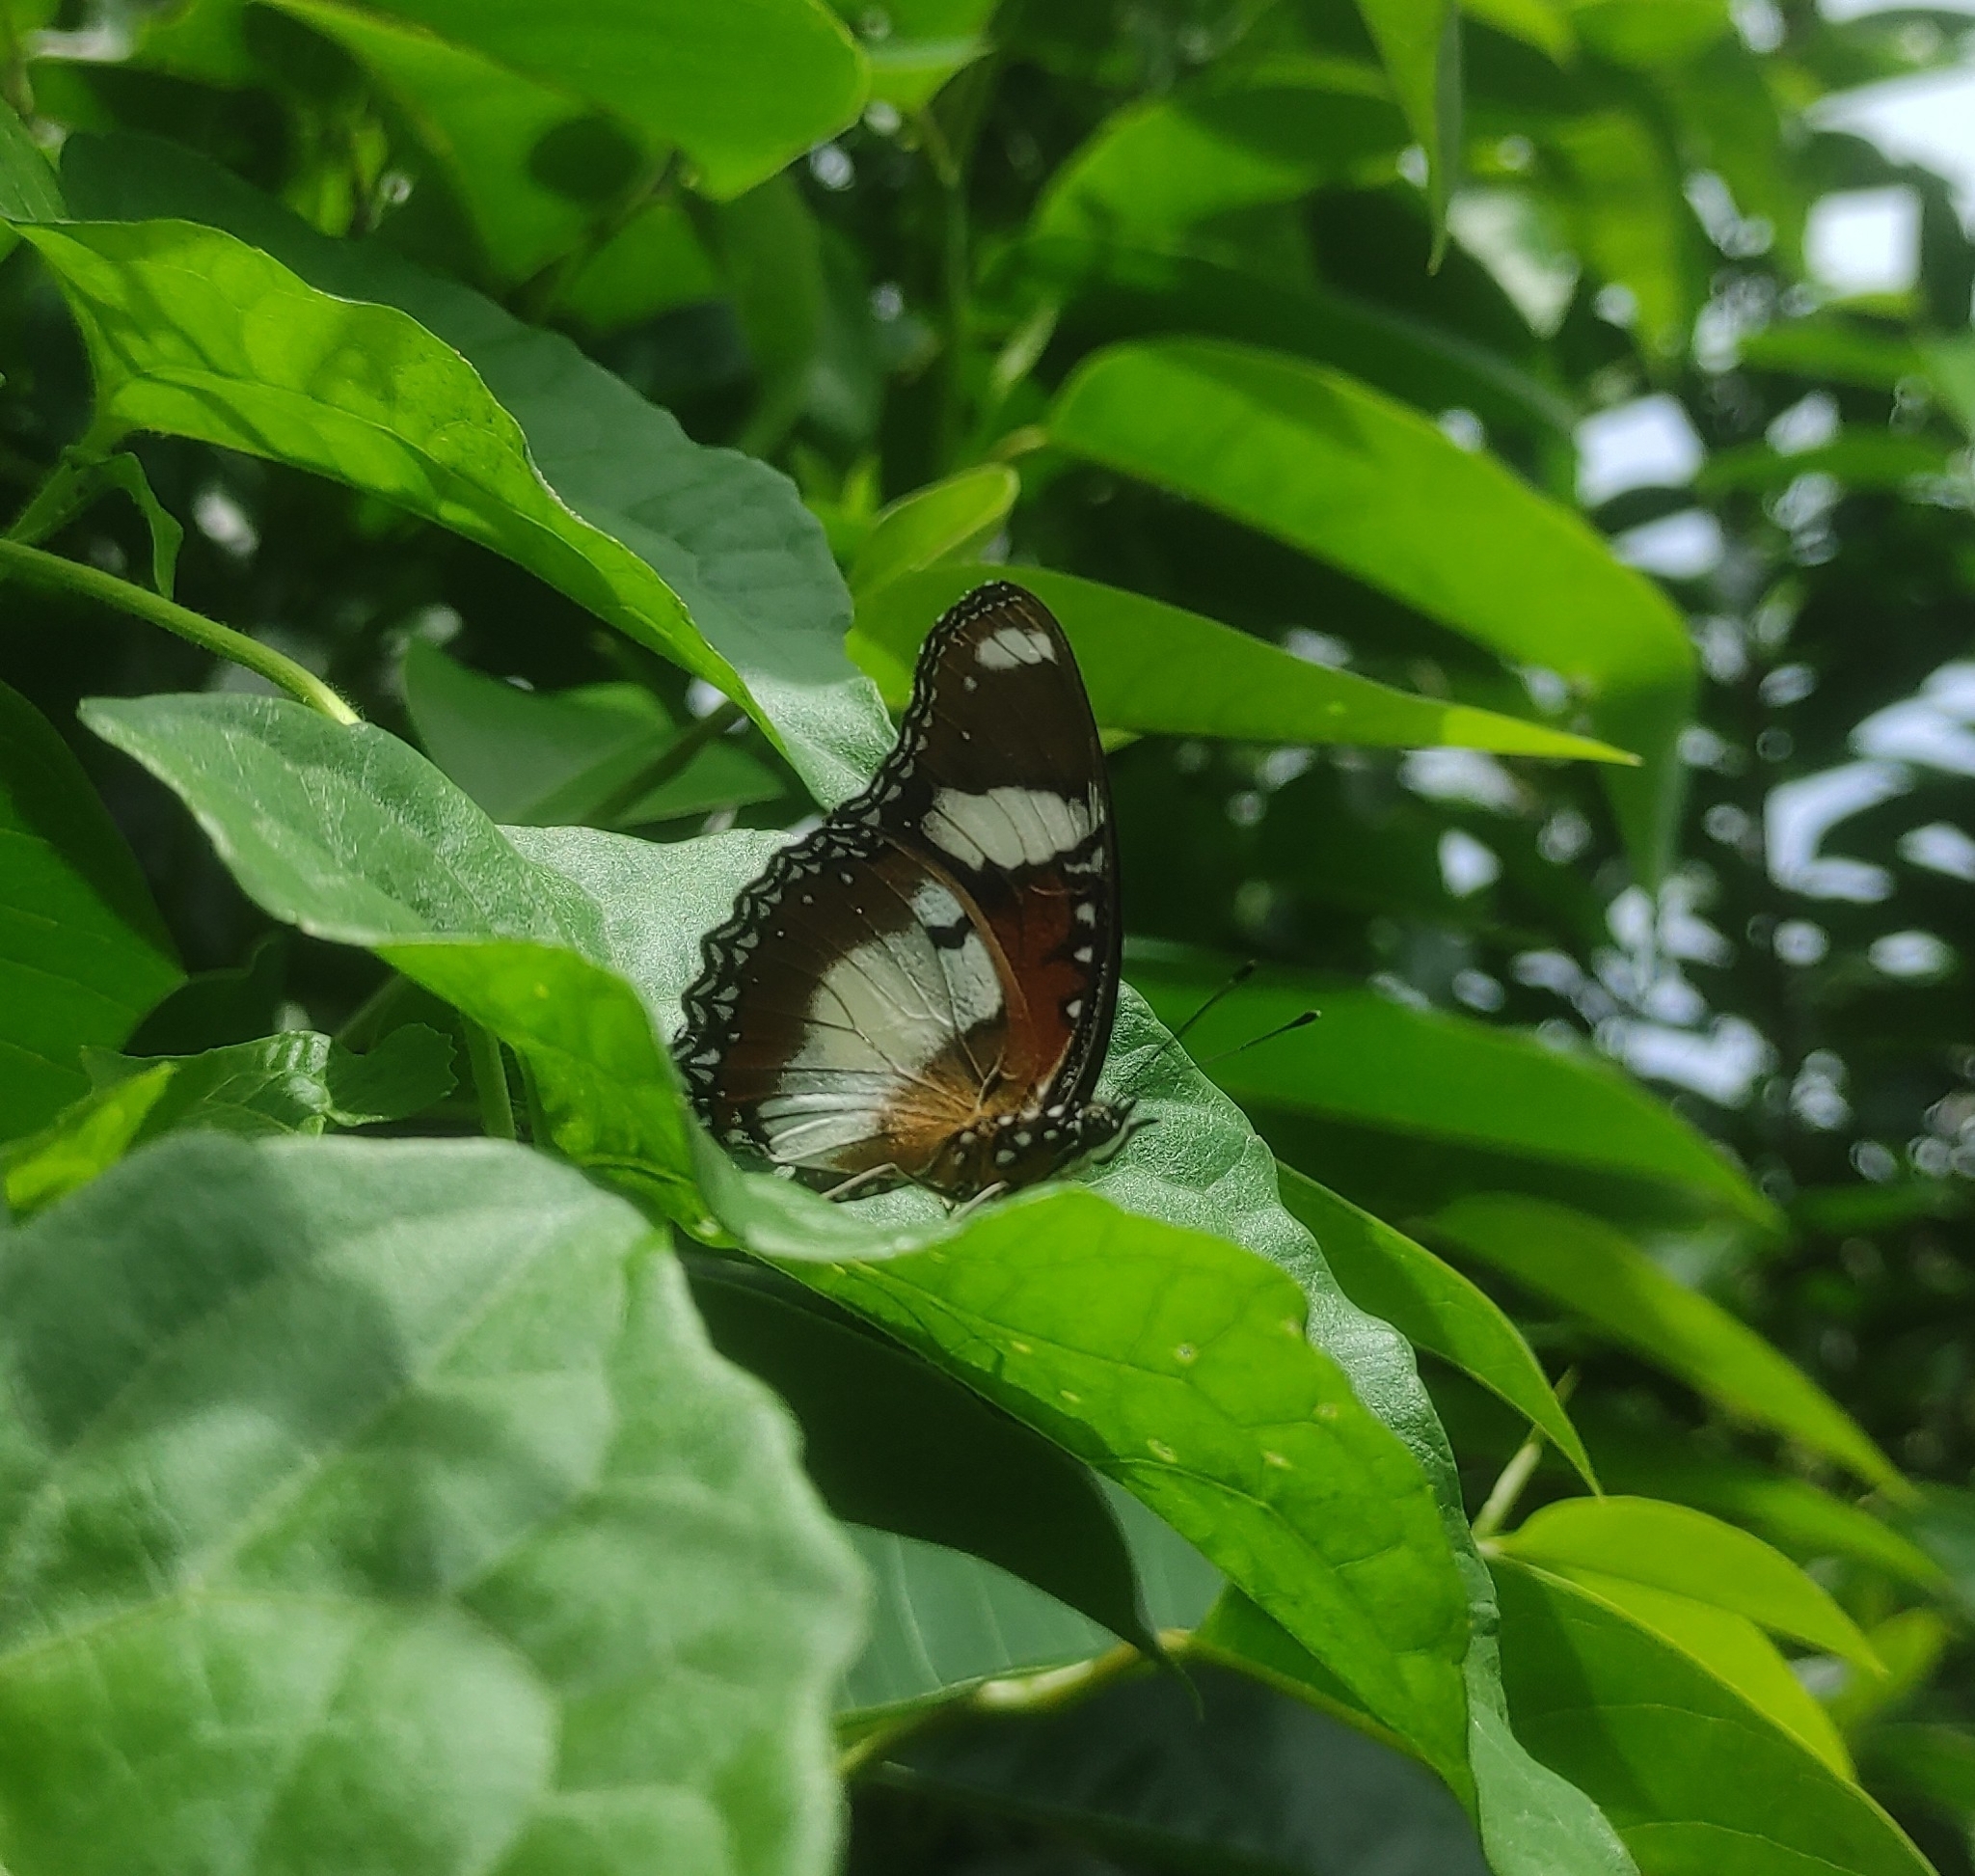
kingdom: Animalia
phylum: Arthropoda
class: Insecta
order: Lepidoptera
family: Nymphalidae
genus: Hypolimnas
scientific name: Hypolimnas misippus
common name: False plain tiger
